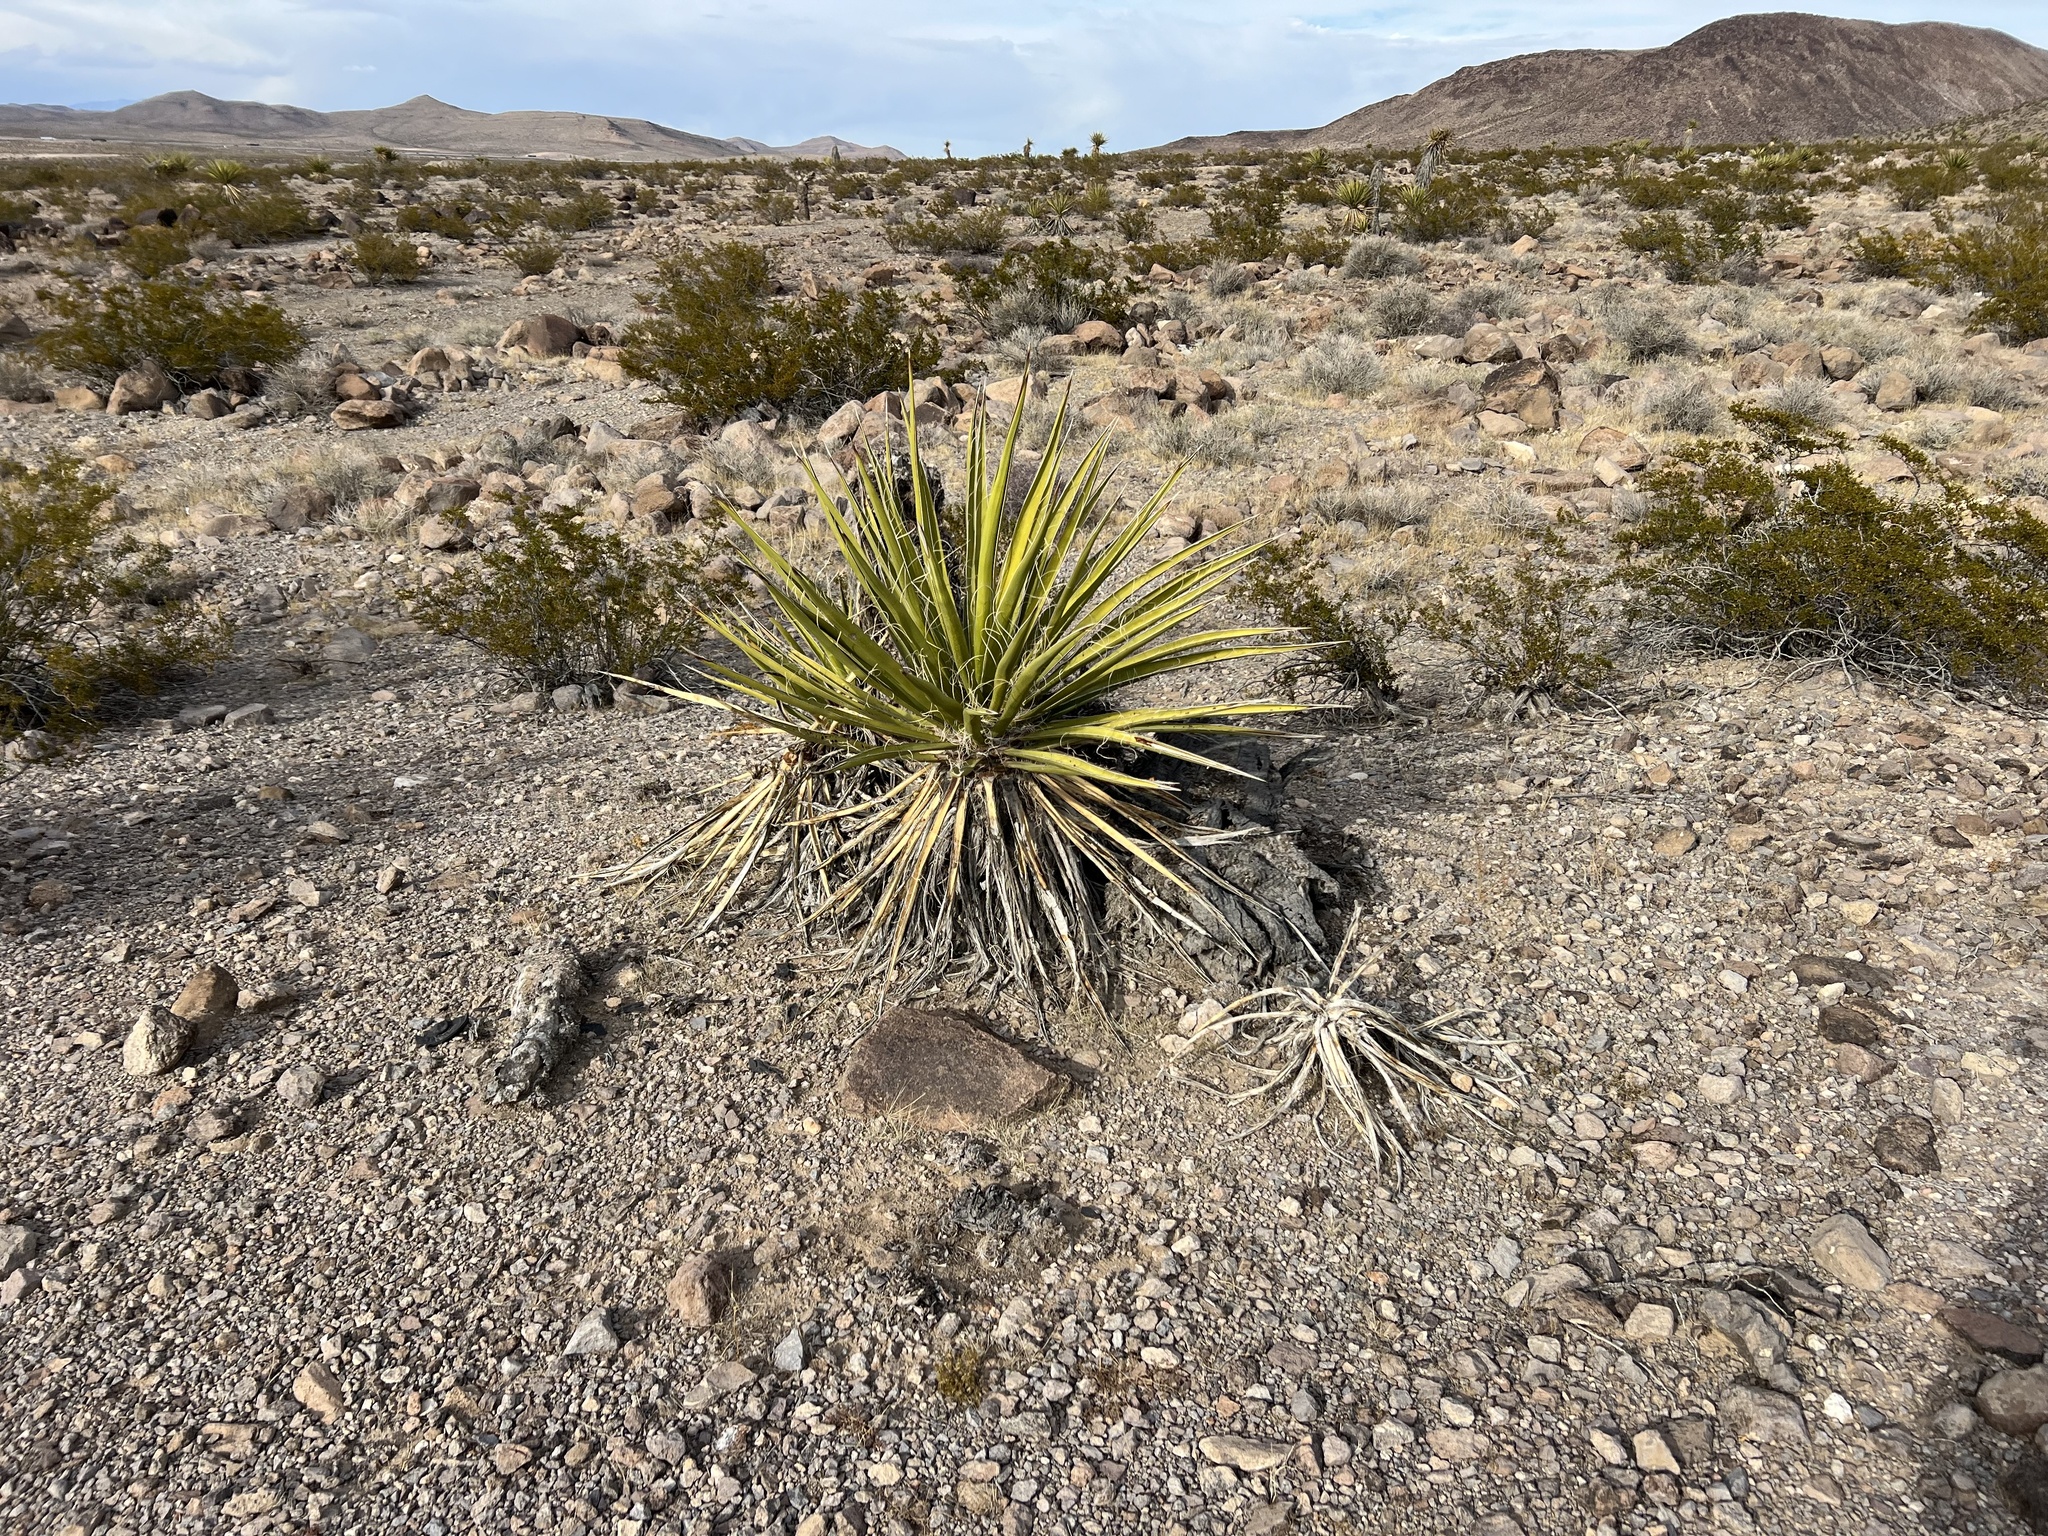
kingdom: Plantae
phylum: Tracheophyta
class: Liliopsida
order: Asparagales
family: Asparagaceae
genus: Yucca
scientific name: Yucca schidigera
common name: Mojave yucca
